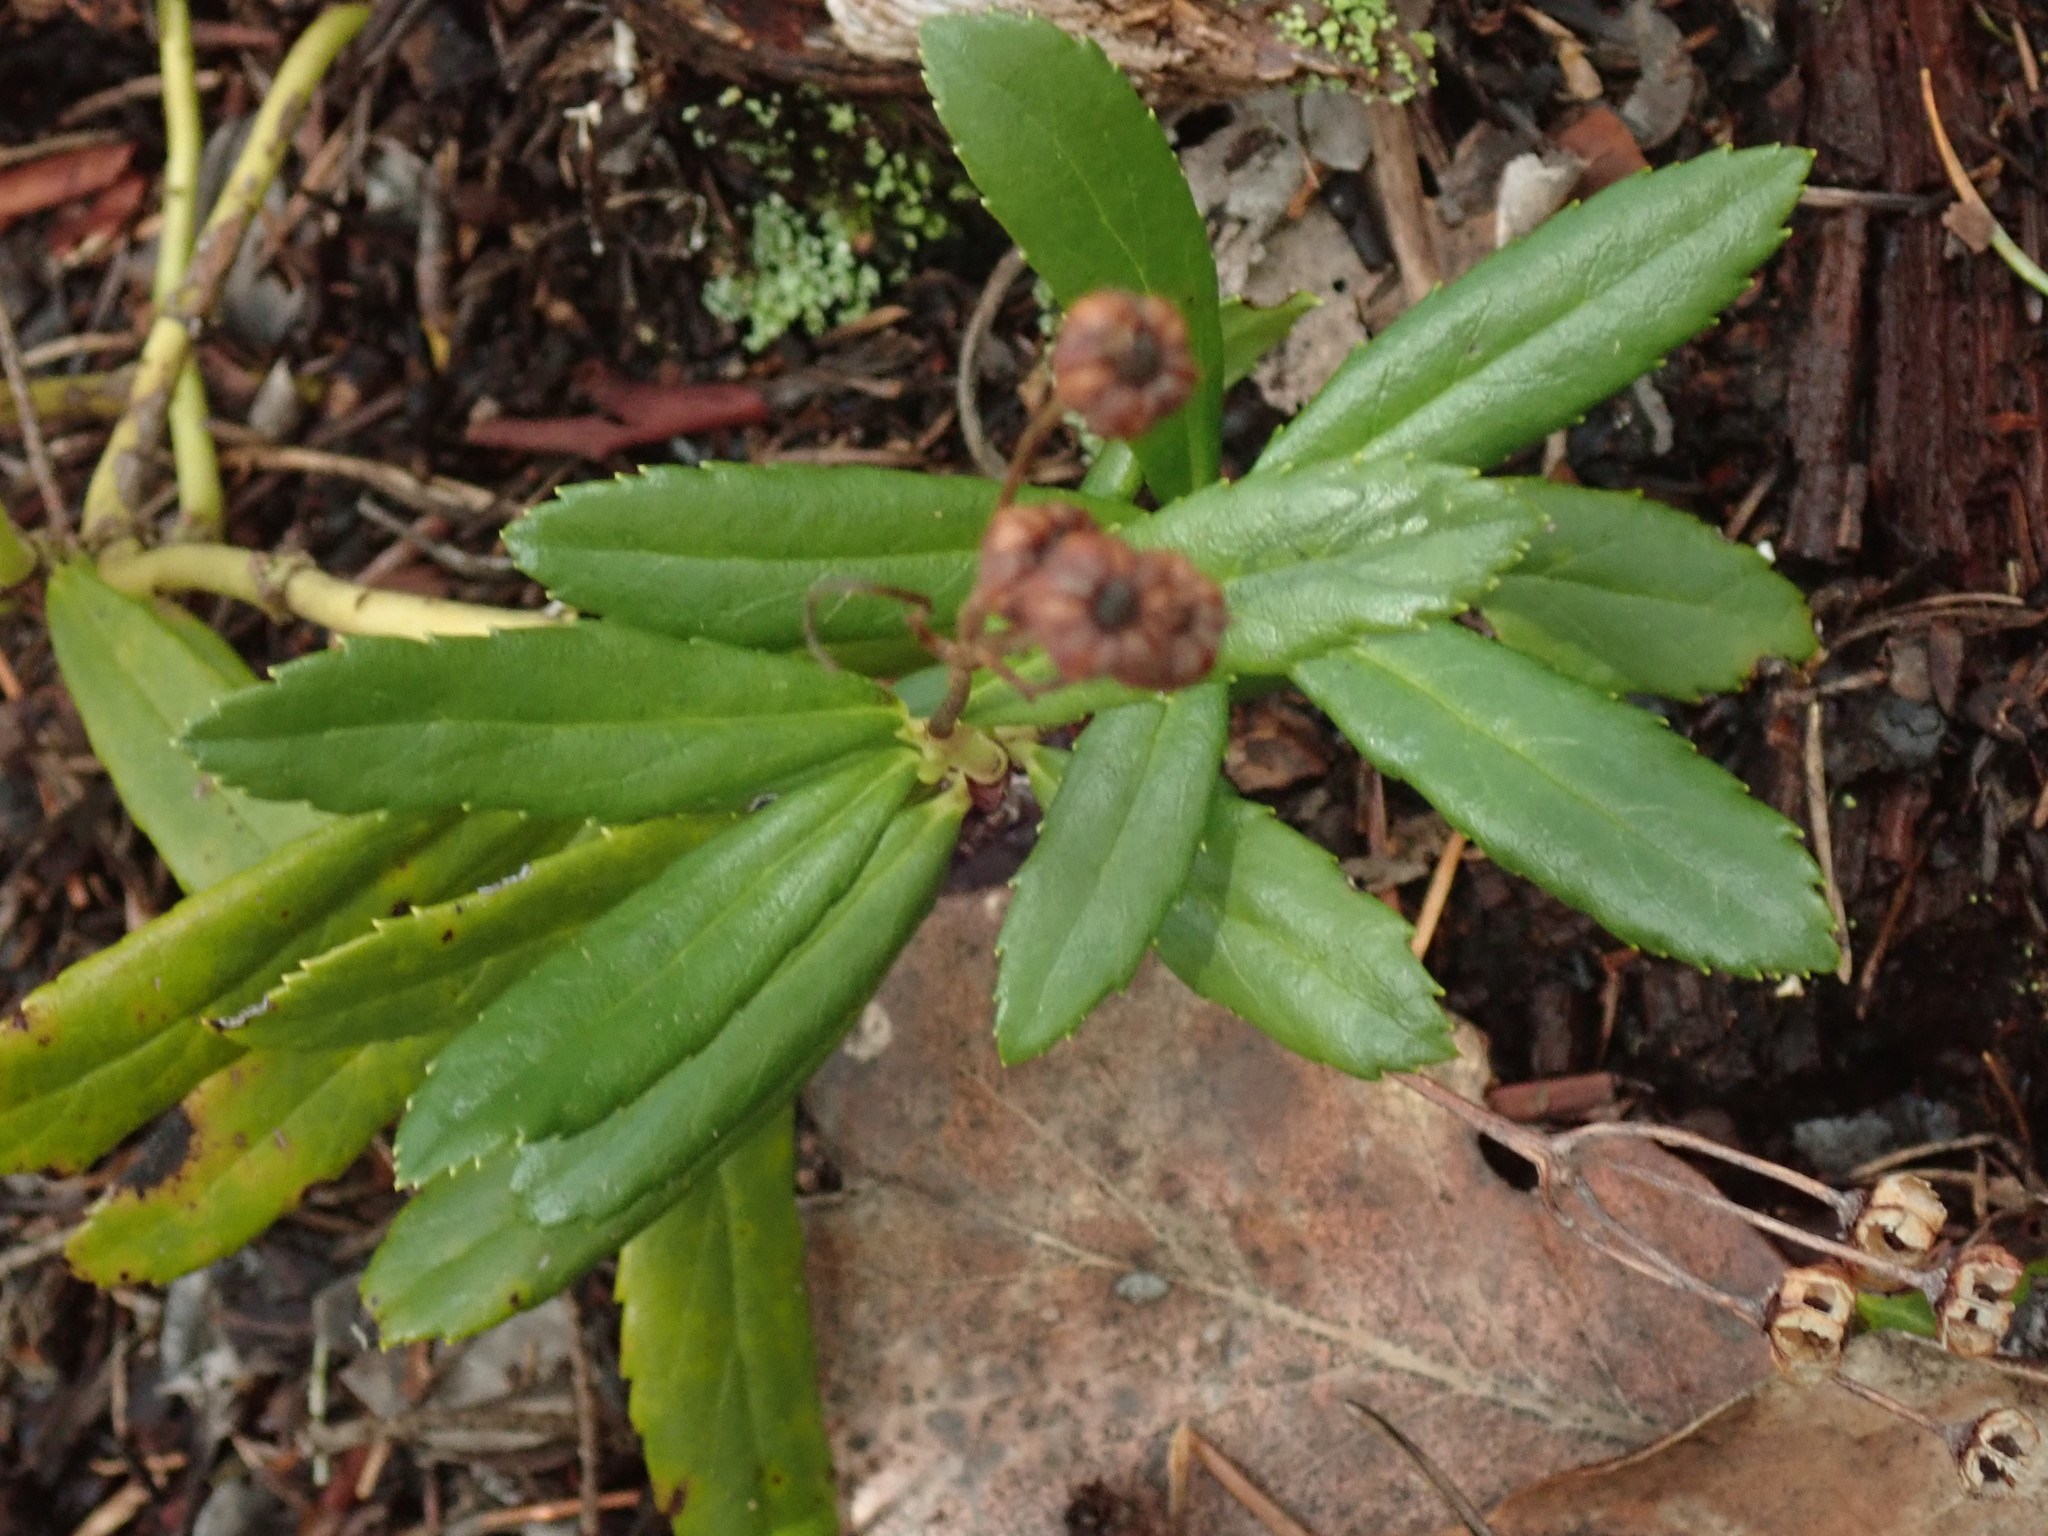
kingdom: Plantae
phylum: Tracheophyta
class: Magnoliopsida
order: Ericales
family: Ericaceae
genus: Chimaphila
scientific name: Chimaphila umbellata
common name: Pipsissewa
